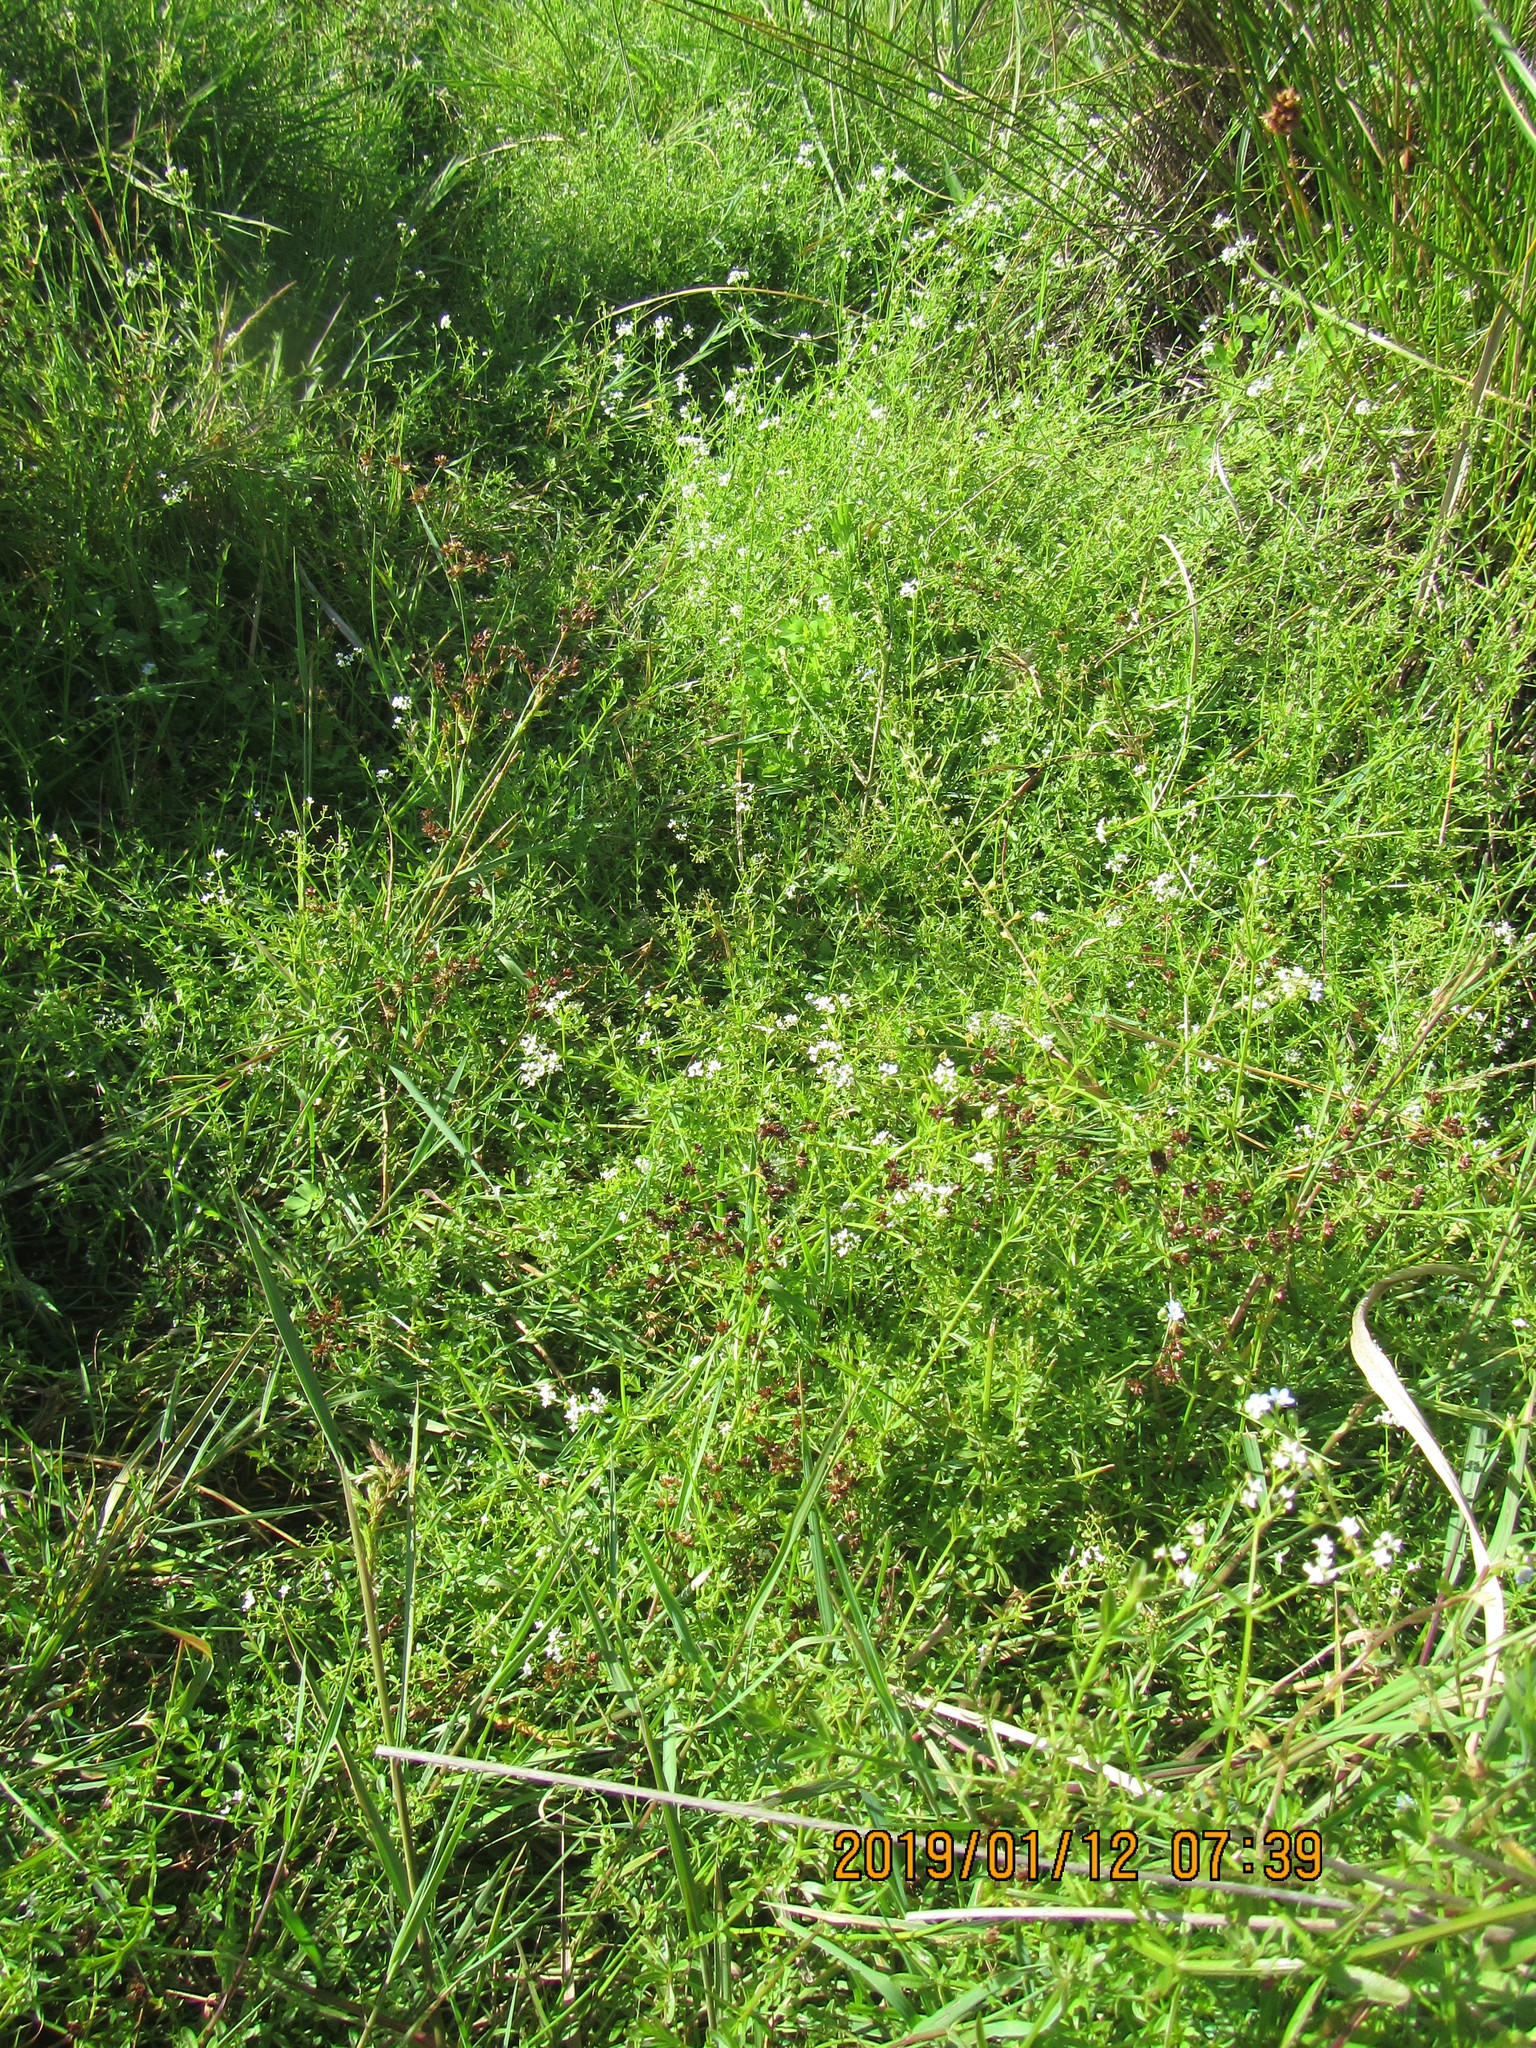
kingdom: Plantae
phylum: Tracheophyta
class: Magnoliopsida
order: Gentianales
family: Rubiaceae
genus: Galium
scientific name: Galium palustre
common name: Common marsh-bedstraw
